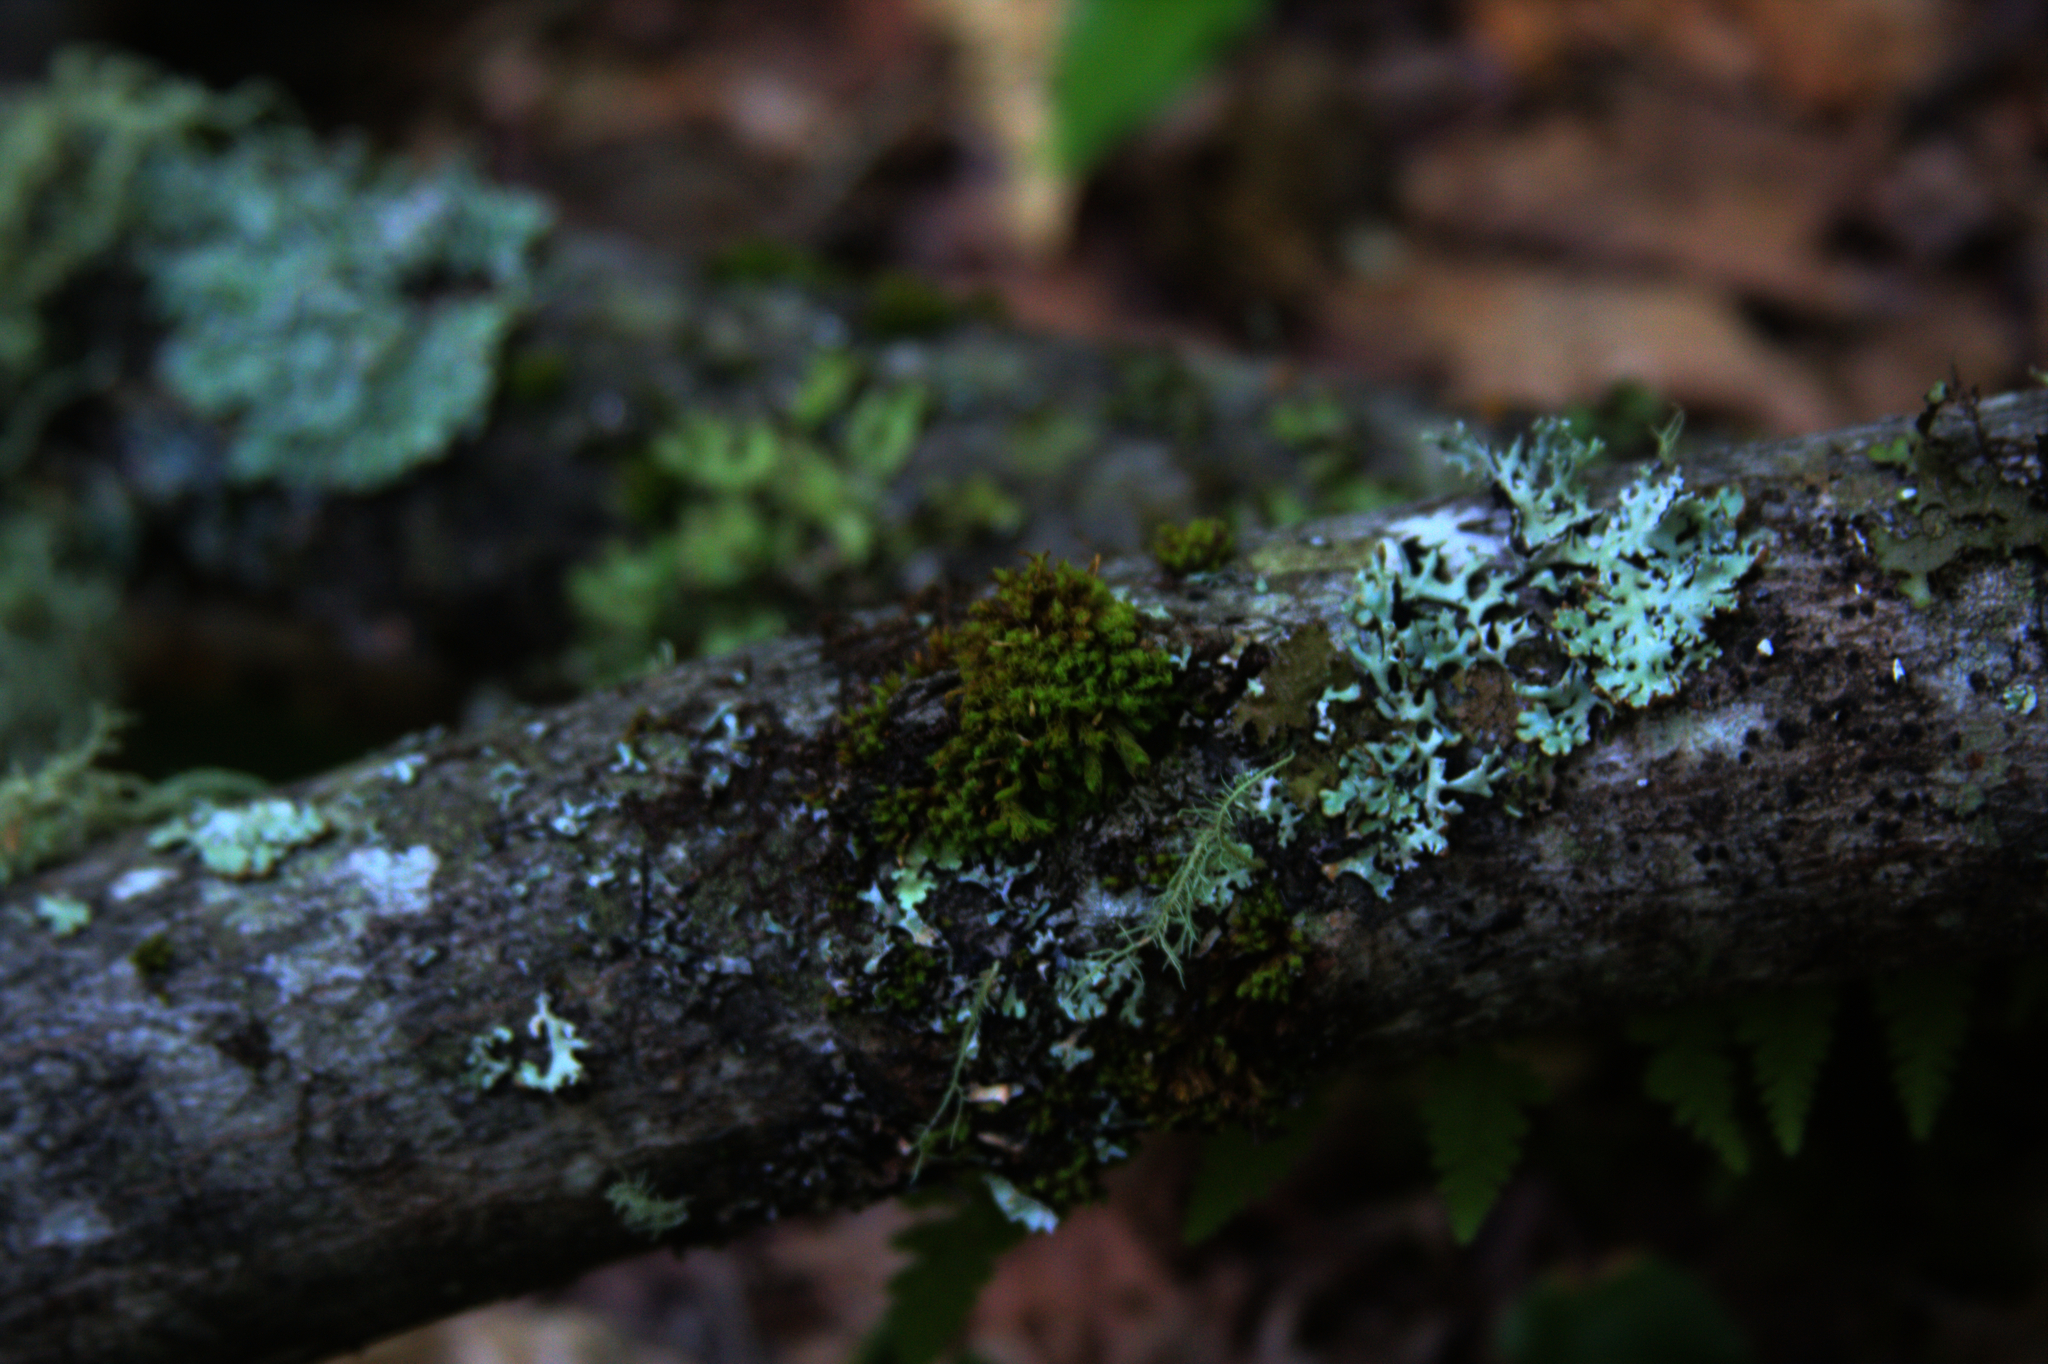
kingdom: Plantae
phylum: Bryophyta
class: Bryopsida
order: Orthotrichales
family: Orthotrichaceae
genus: Ulota
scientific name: Ulota crispa
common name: Crisped pincushion moss
